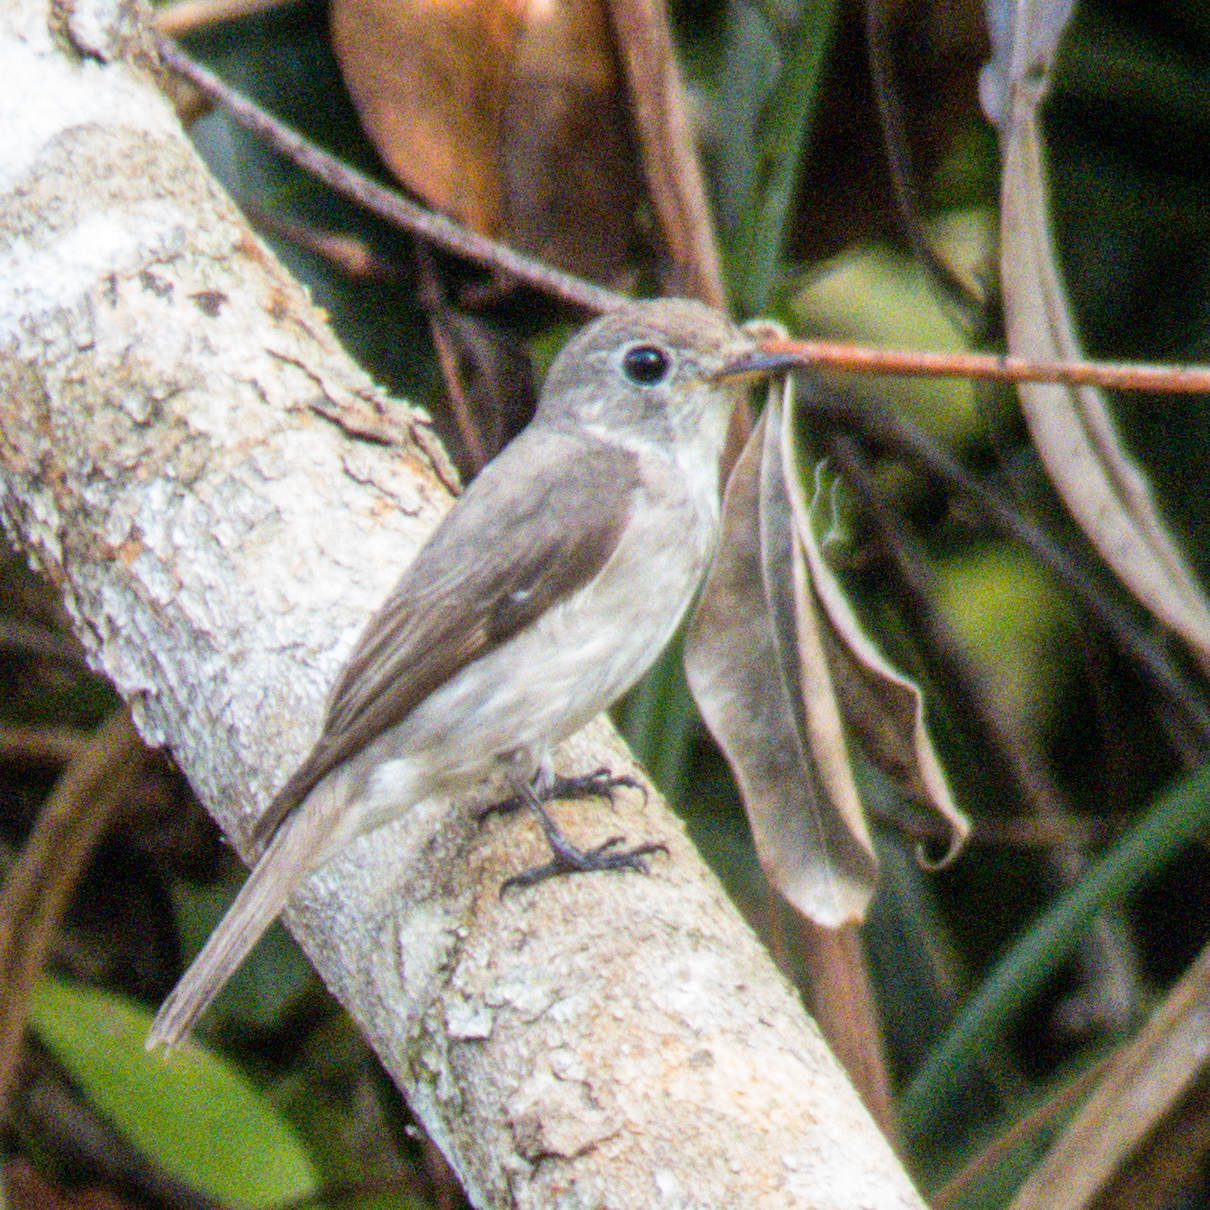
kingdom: Animalia
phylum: Chordata
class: Aves
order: Passeriformes
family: Muscicapidae
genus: Muscicapa
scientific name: Muscicapa latirostris
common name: Asian brown flycatcher
